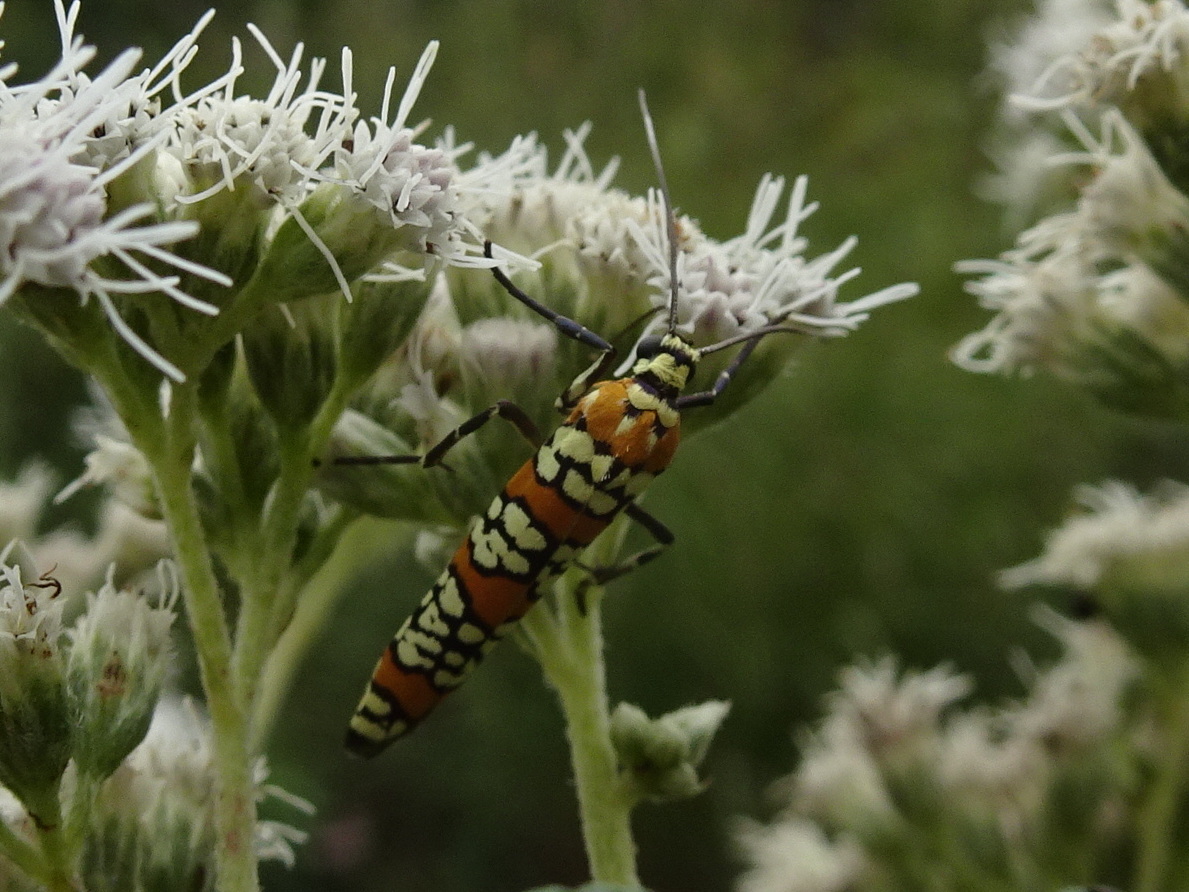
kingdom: Animalia
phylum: Arthropoda
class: Insecta
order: Lepidoptera
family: Attevidae
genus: Atteva
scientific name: Atteva punctella
